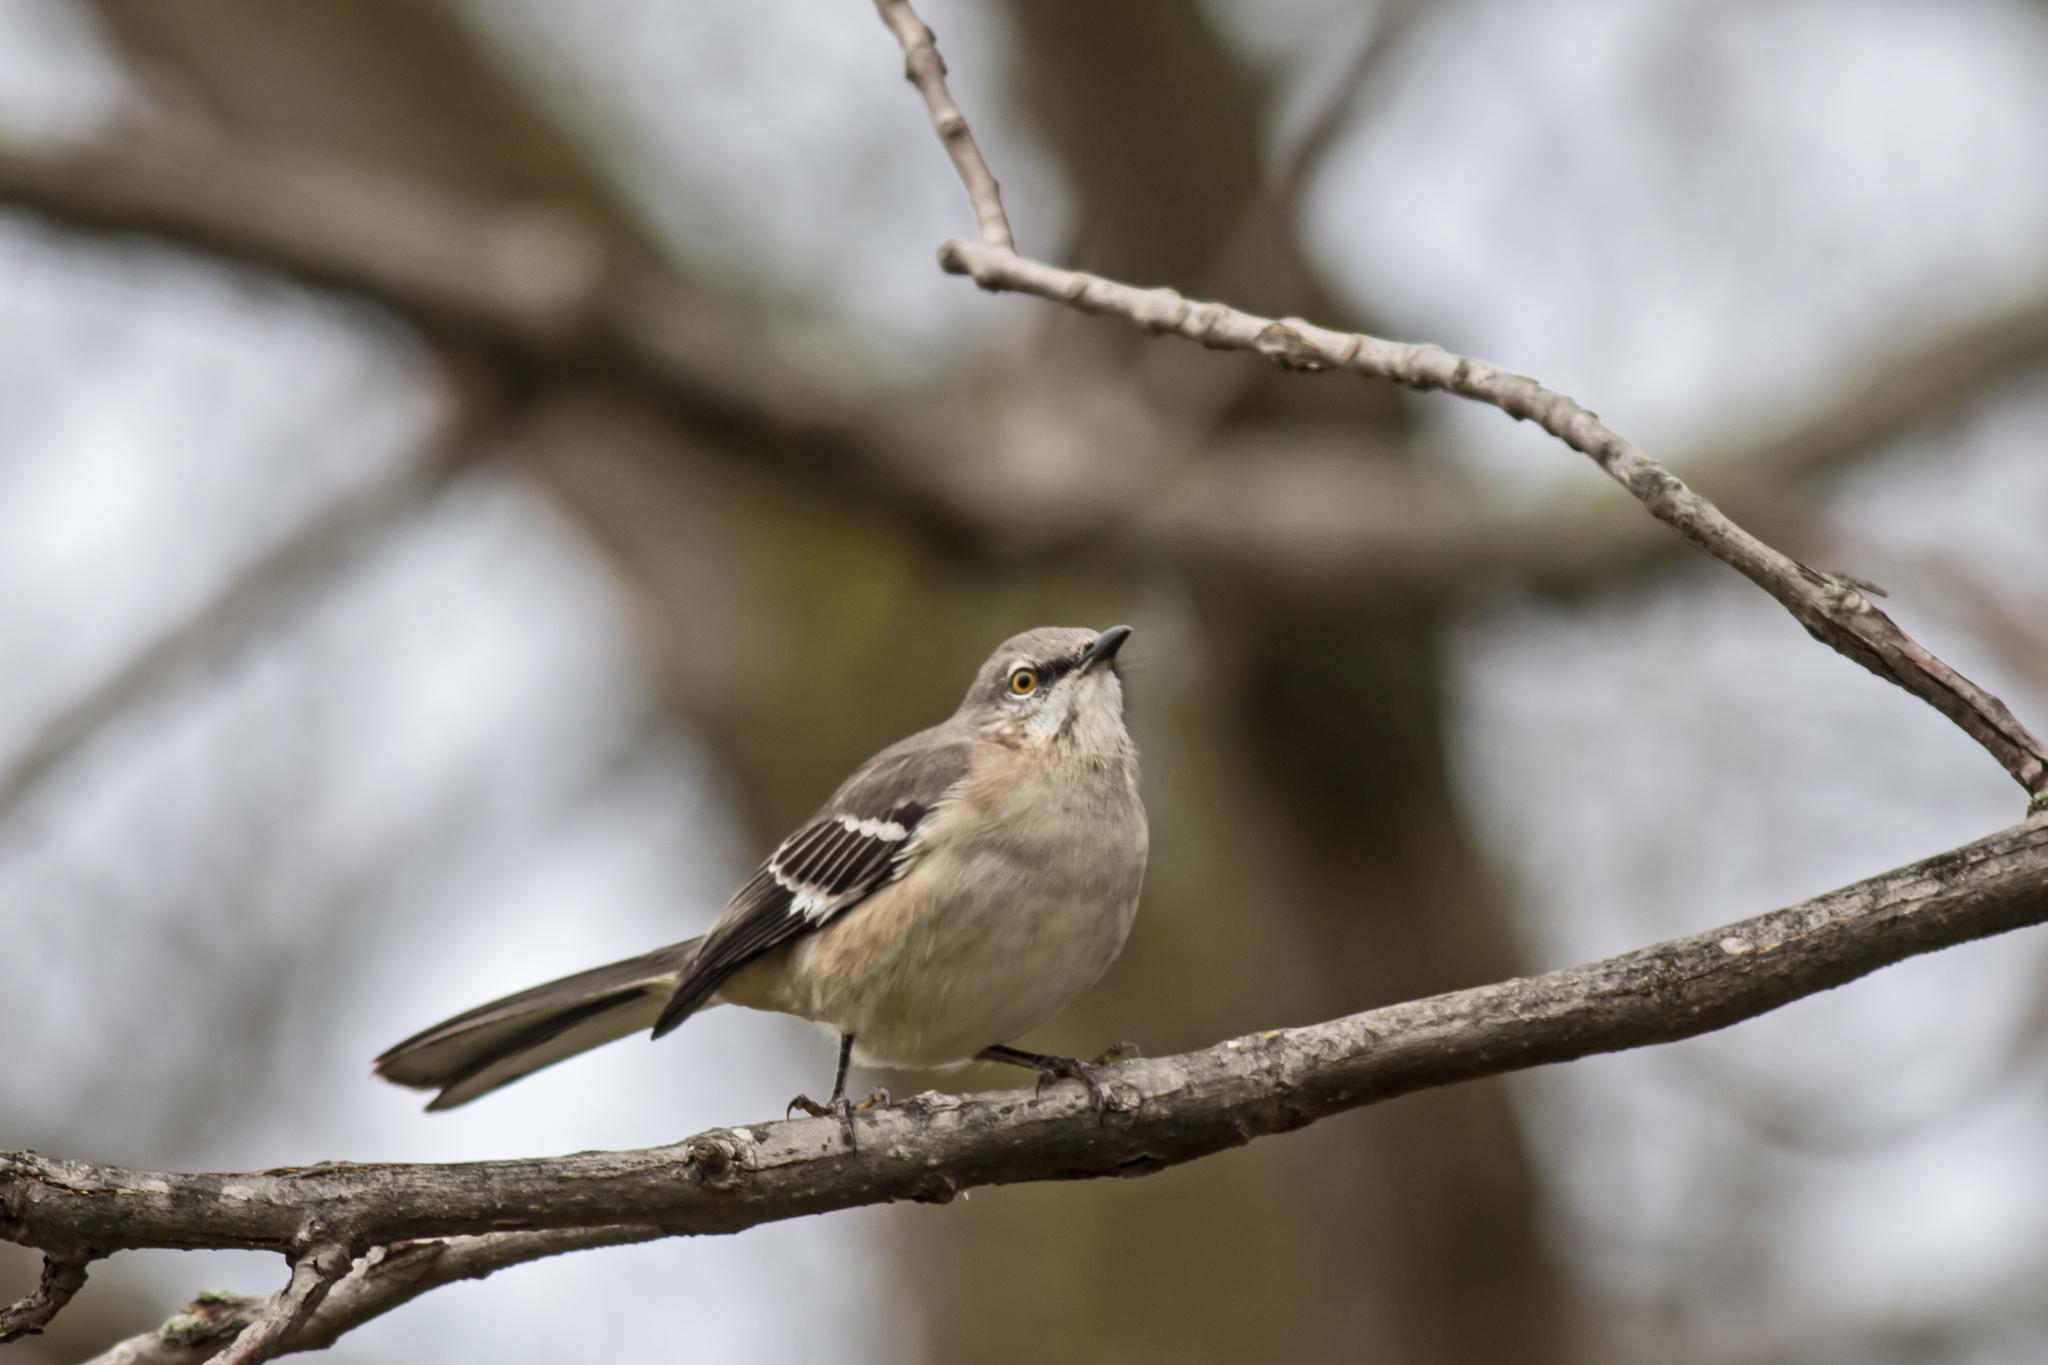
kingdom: Animalia
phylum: Chordata
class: Aves
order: Passeriformes
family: Mimidae
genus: Mimus
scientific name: Mimus polyglottos
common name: Northern mockingbird
